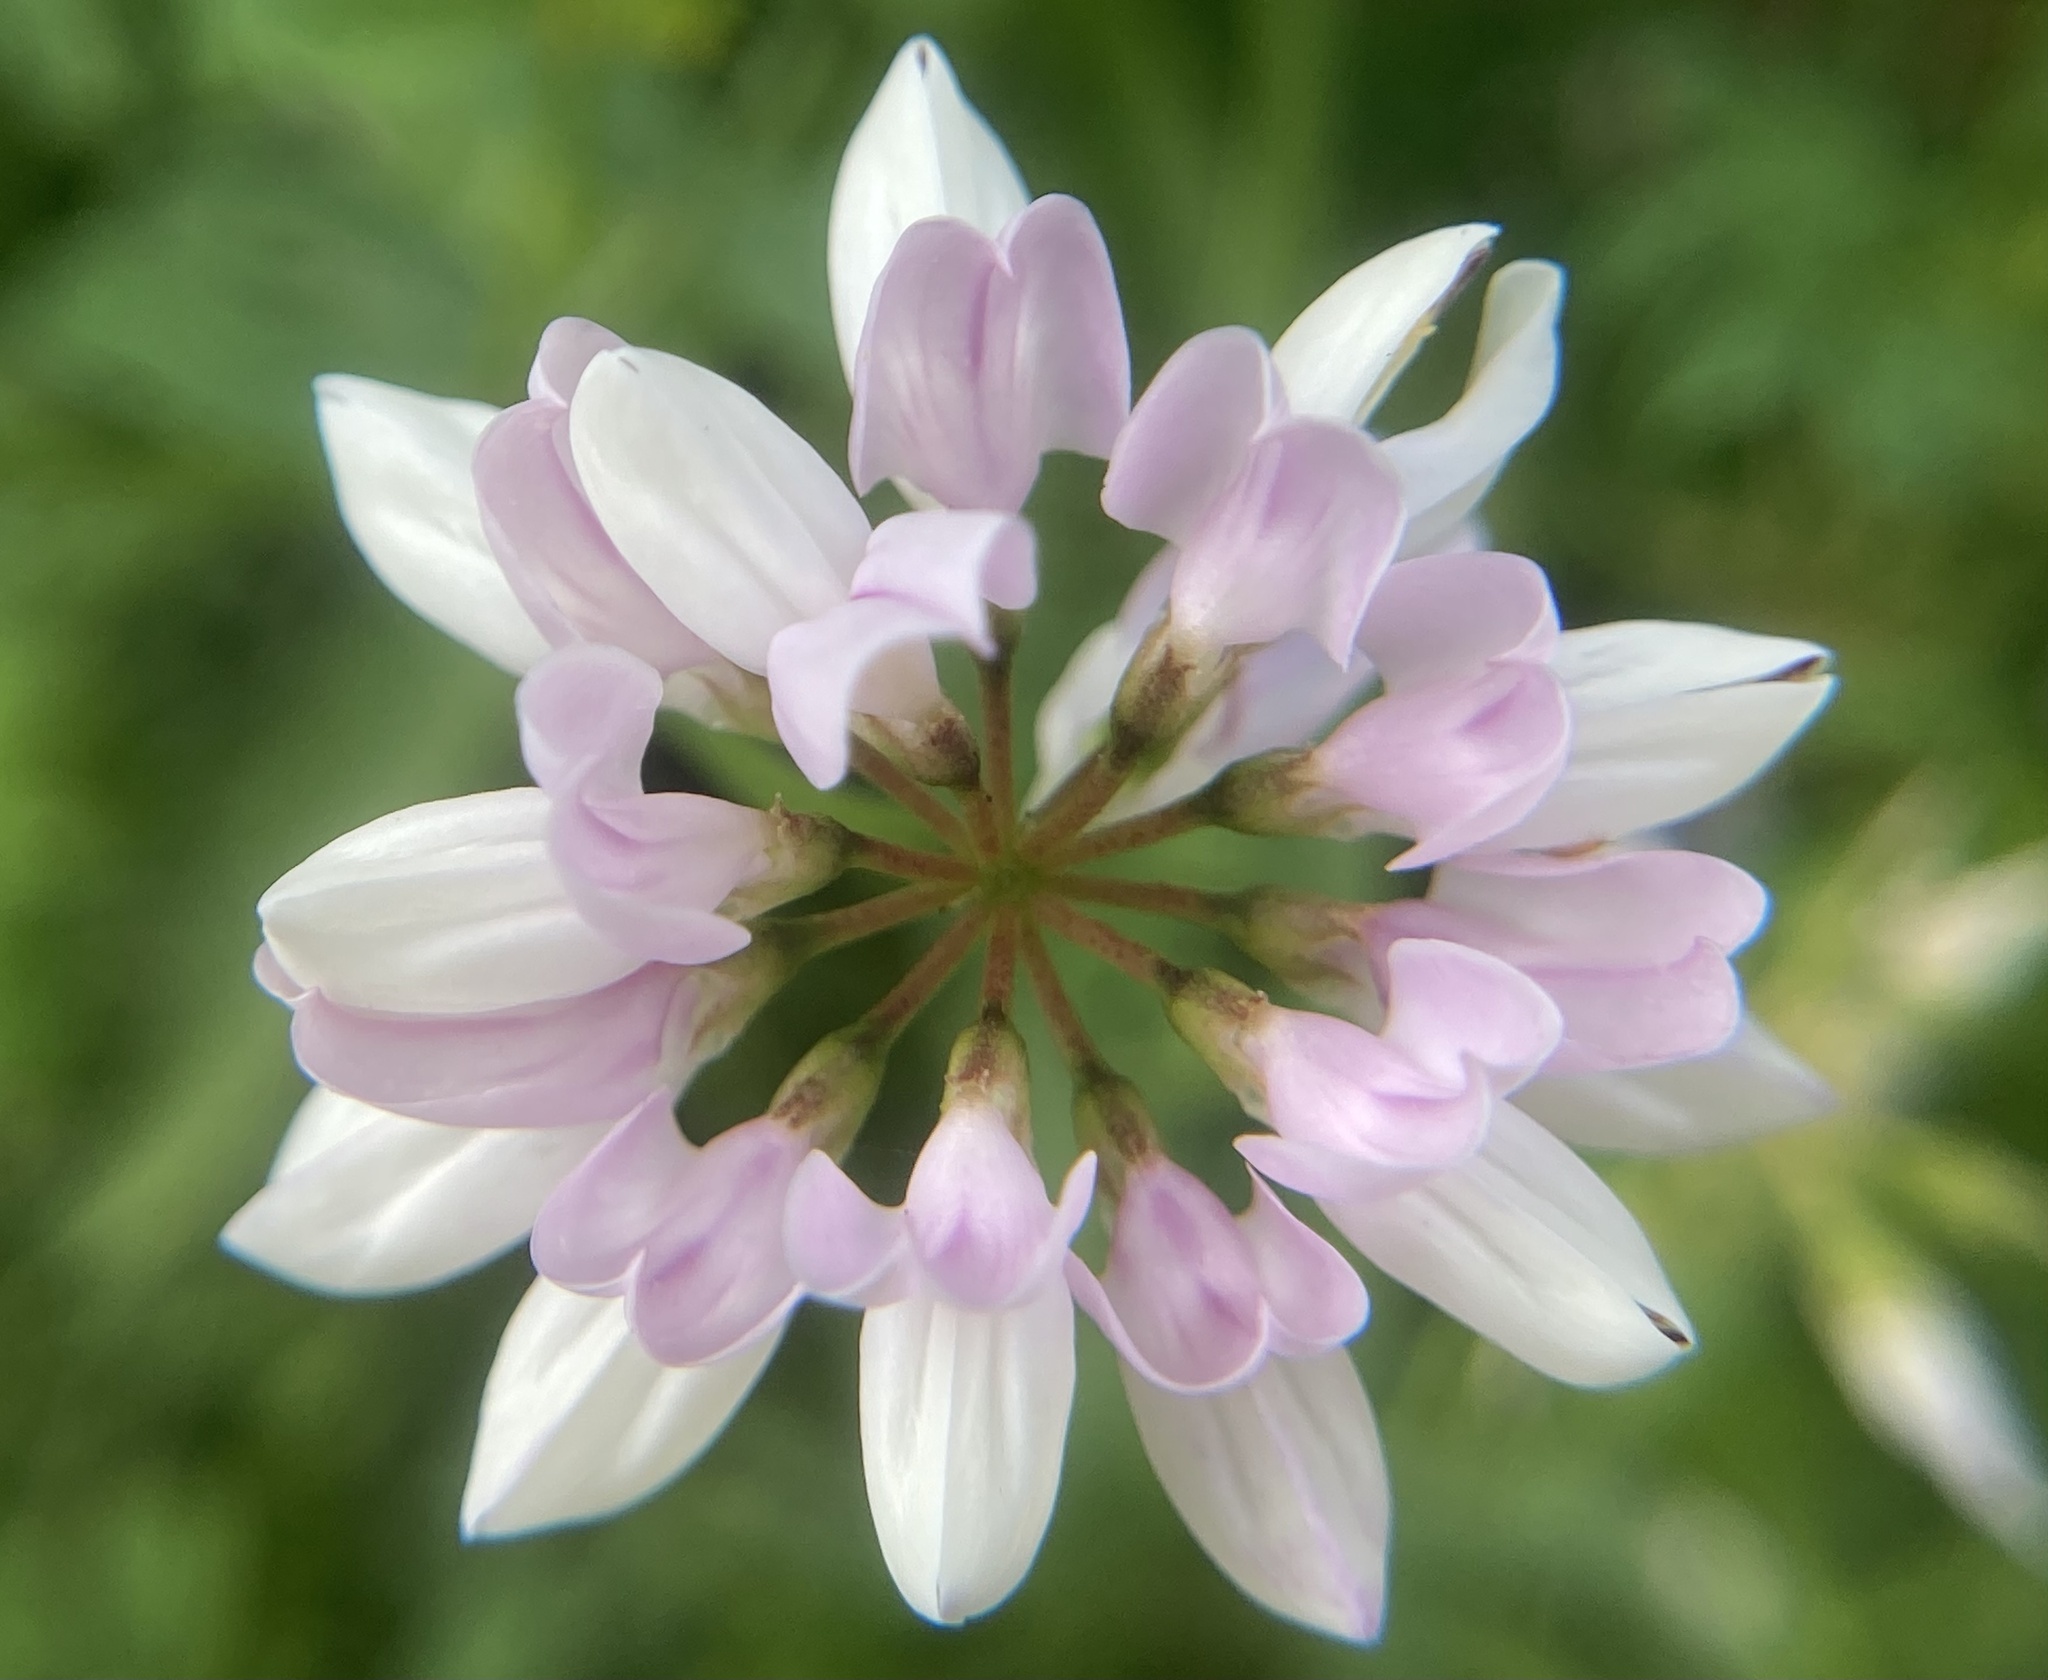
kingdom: Plantae
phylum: Tracheophyta
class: Magnoliopsida
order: Fabales
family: Fabaceae
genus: Coronilla
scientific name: Coronilla varia
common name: Crownvetch
